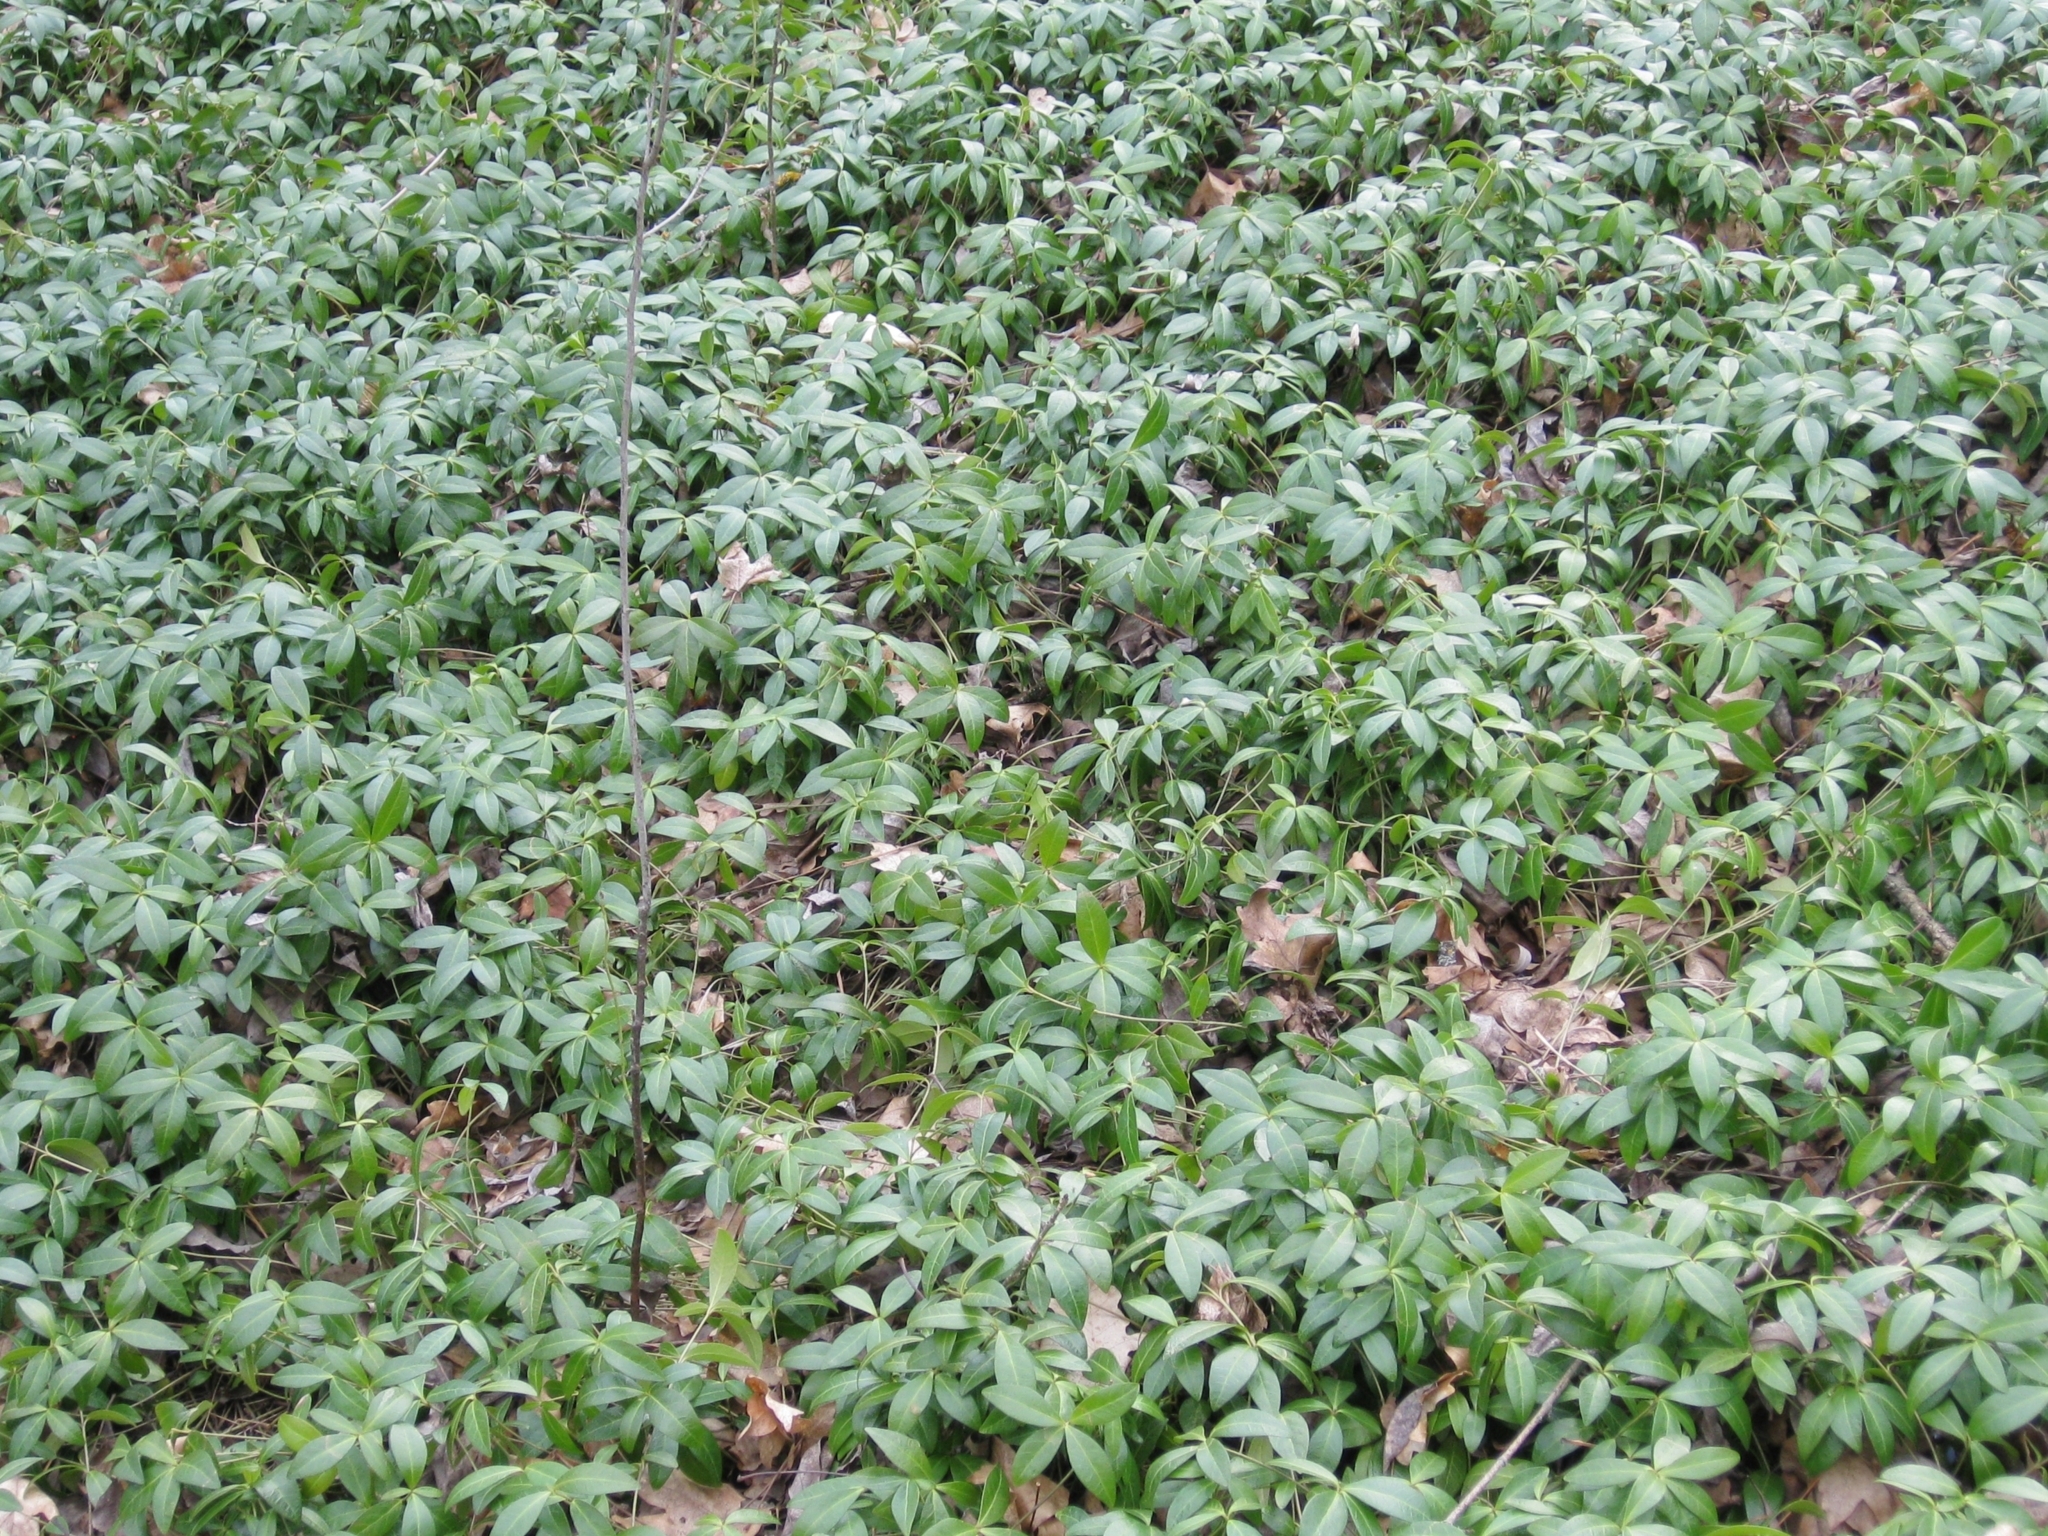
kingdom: Plantae
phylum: Tracheophyta
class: Magnoliopsida
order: Gentianales
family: Apocynaceae
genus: Vinca
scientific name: Vinca minor
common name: Lesser periwinkle
